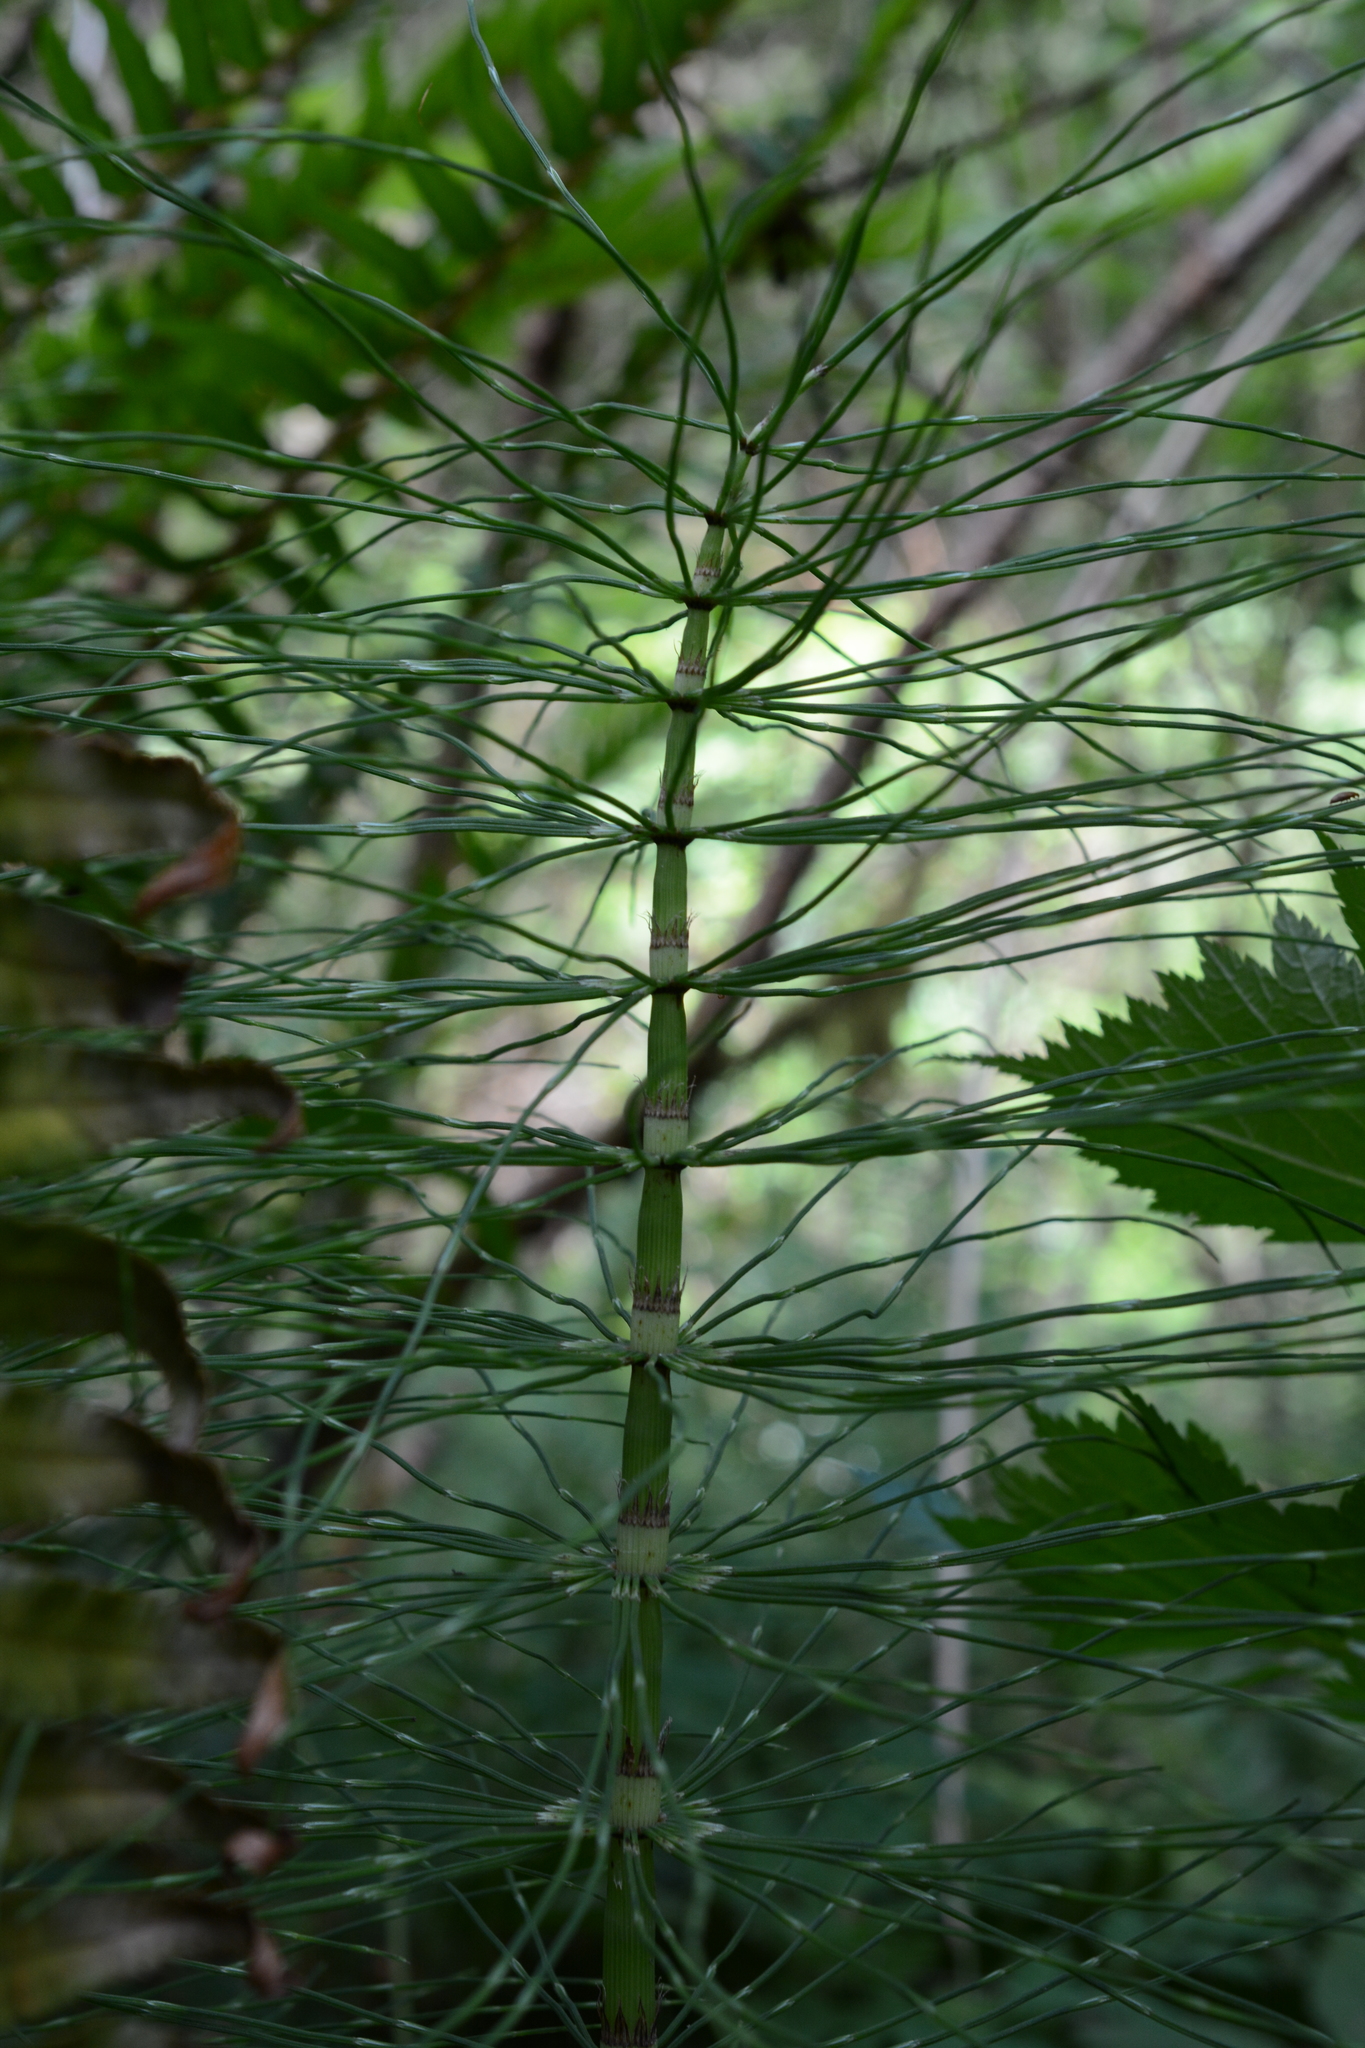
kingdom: Plantae
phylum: Tracheophyta
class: Polypodiopsida
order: Equisetales
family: Equisetaceae
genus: Equisetum
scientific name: Equisetum braunii
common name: Braun's horsetail
